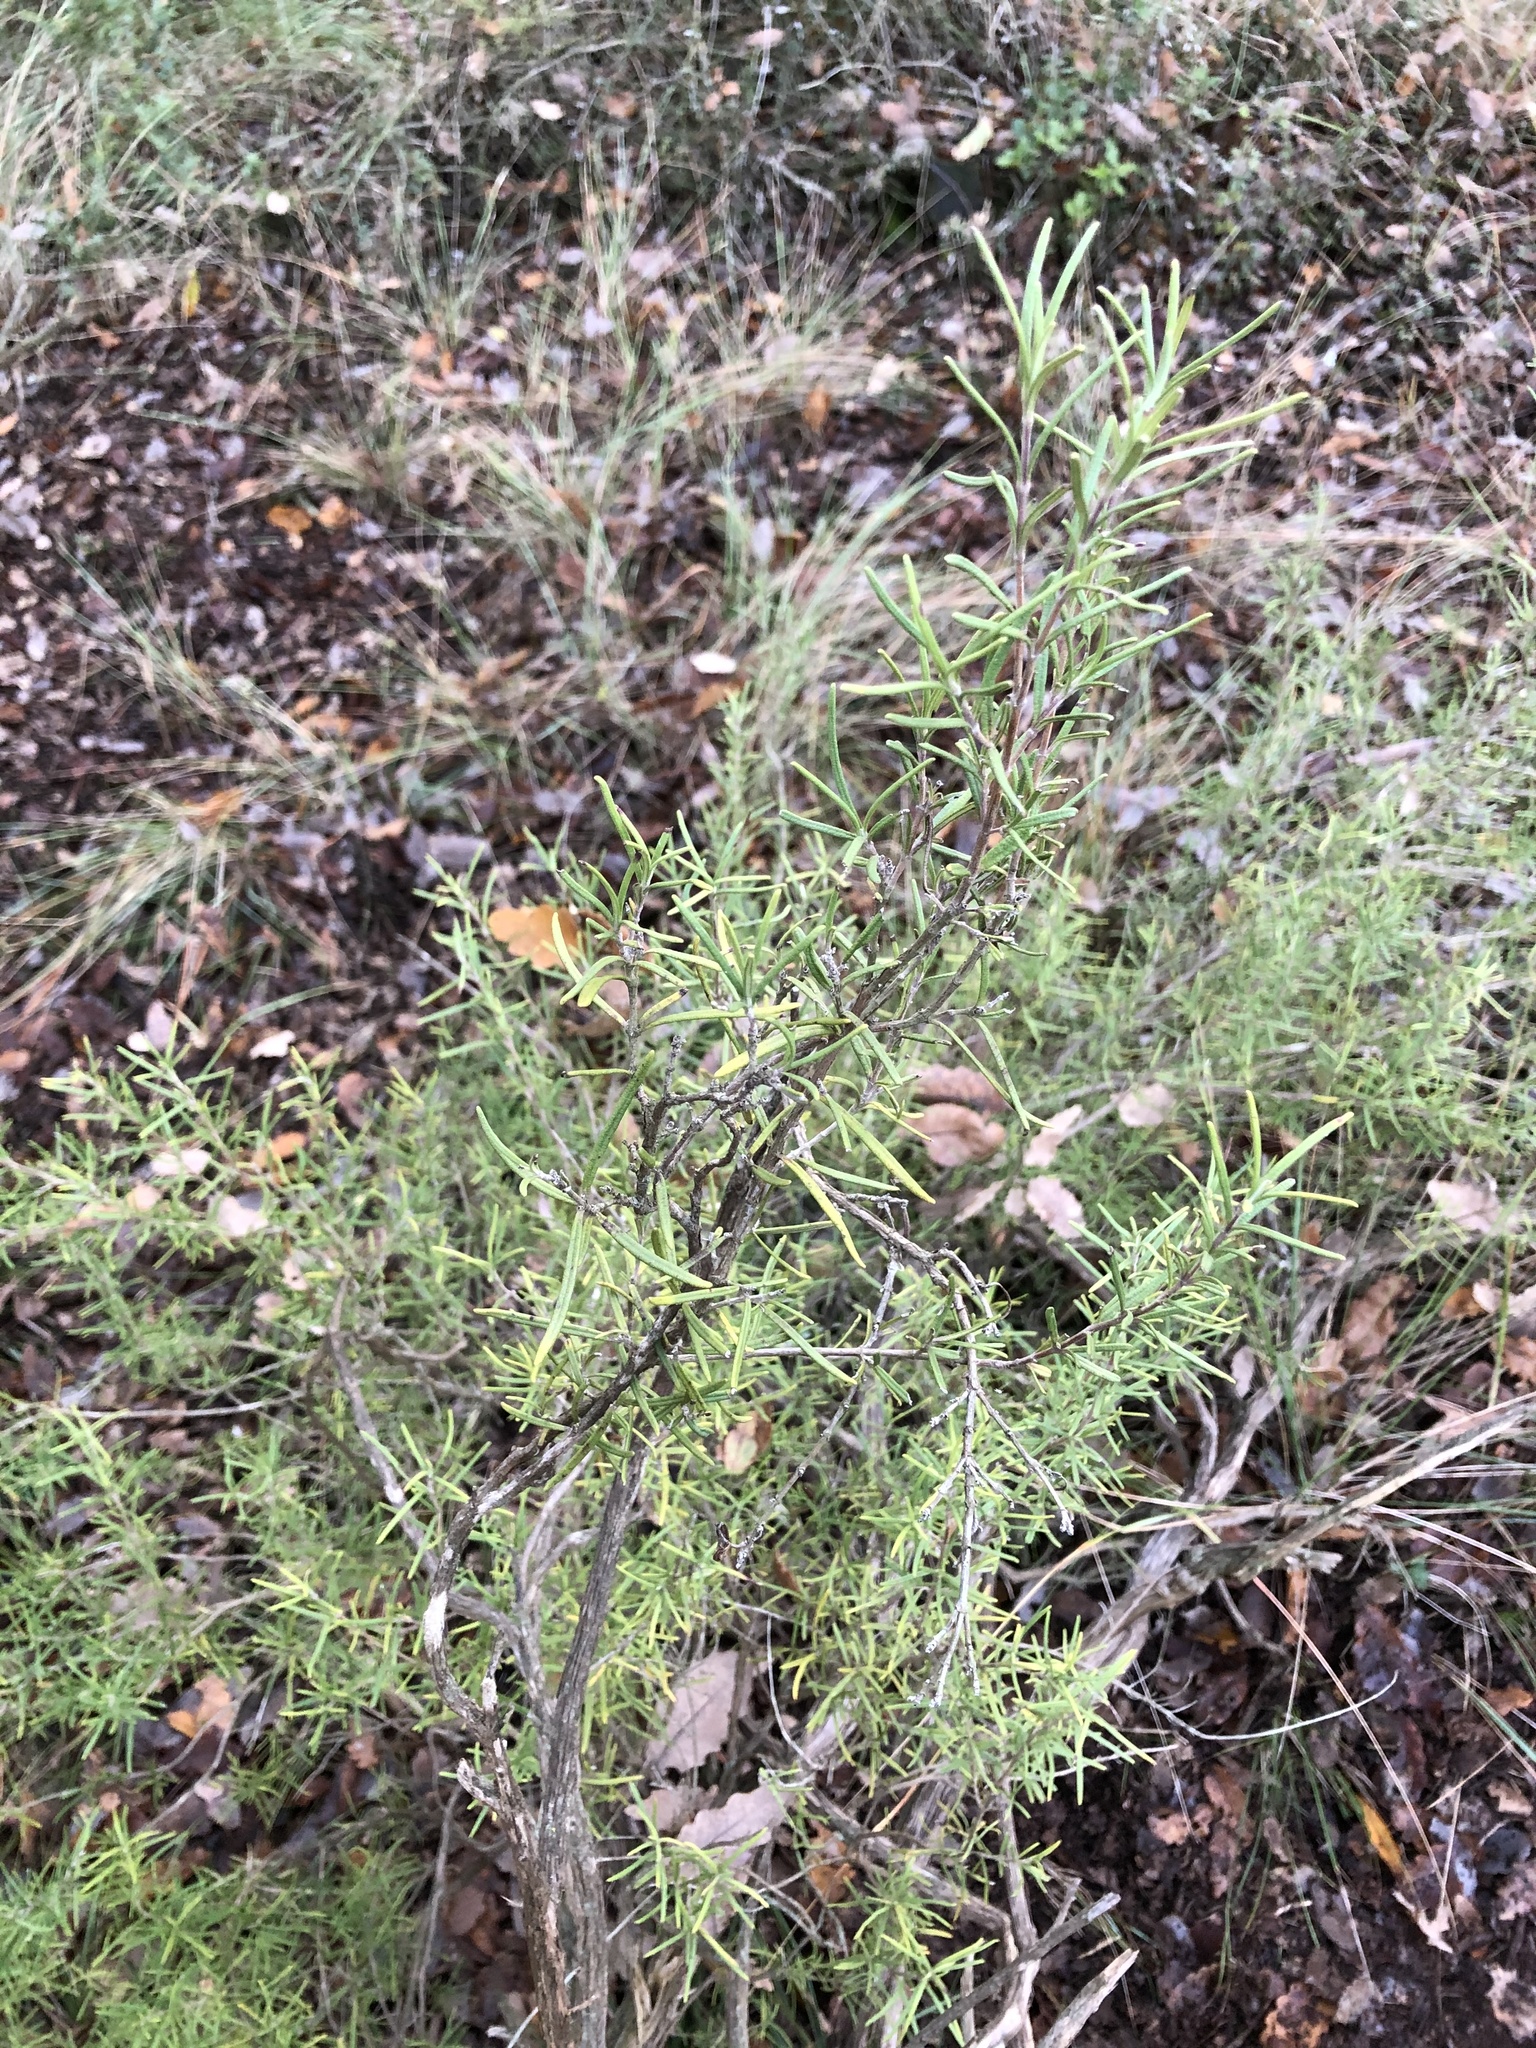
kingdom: Plantae
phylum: Tracheophyta
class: Magnoliopsida
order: Lamiales
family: Lamiaceae
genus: Salvia
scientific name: Salvia rosmarinus
